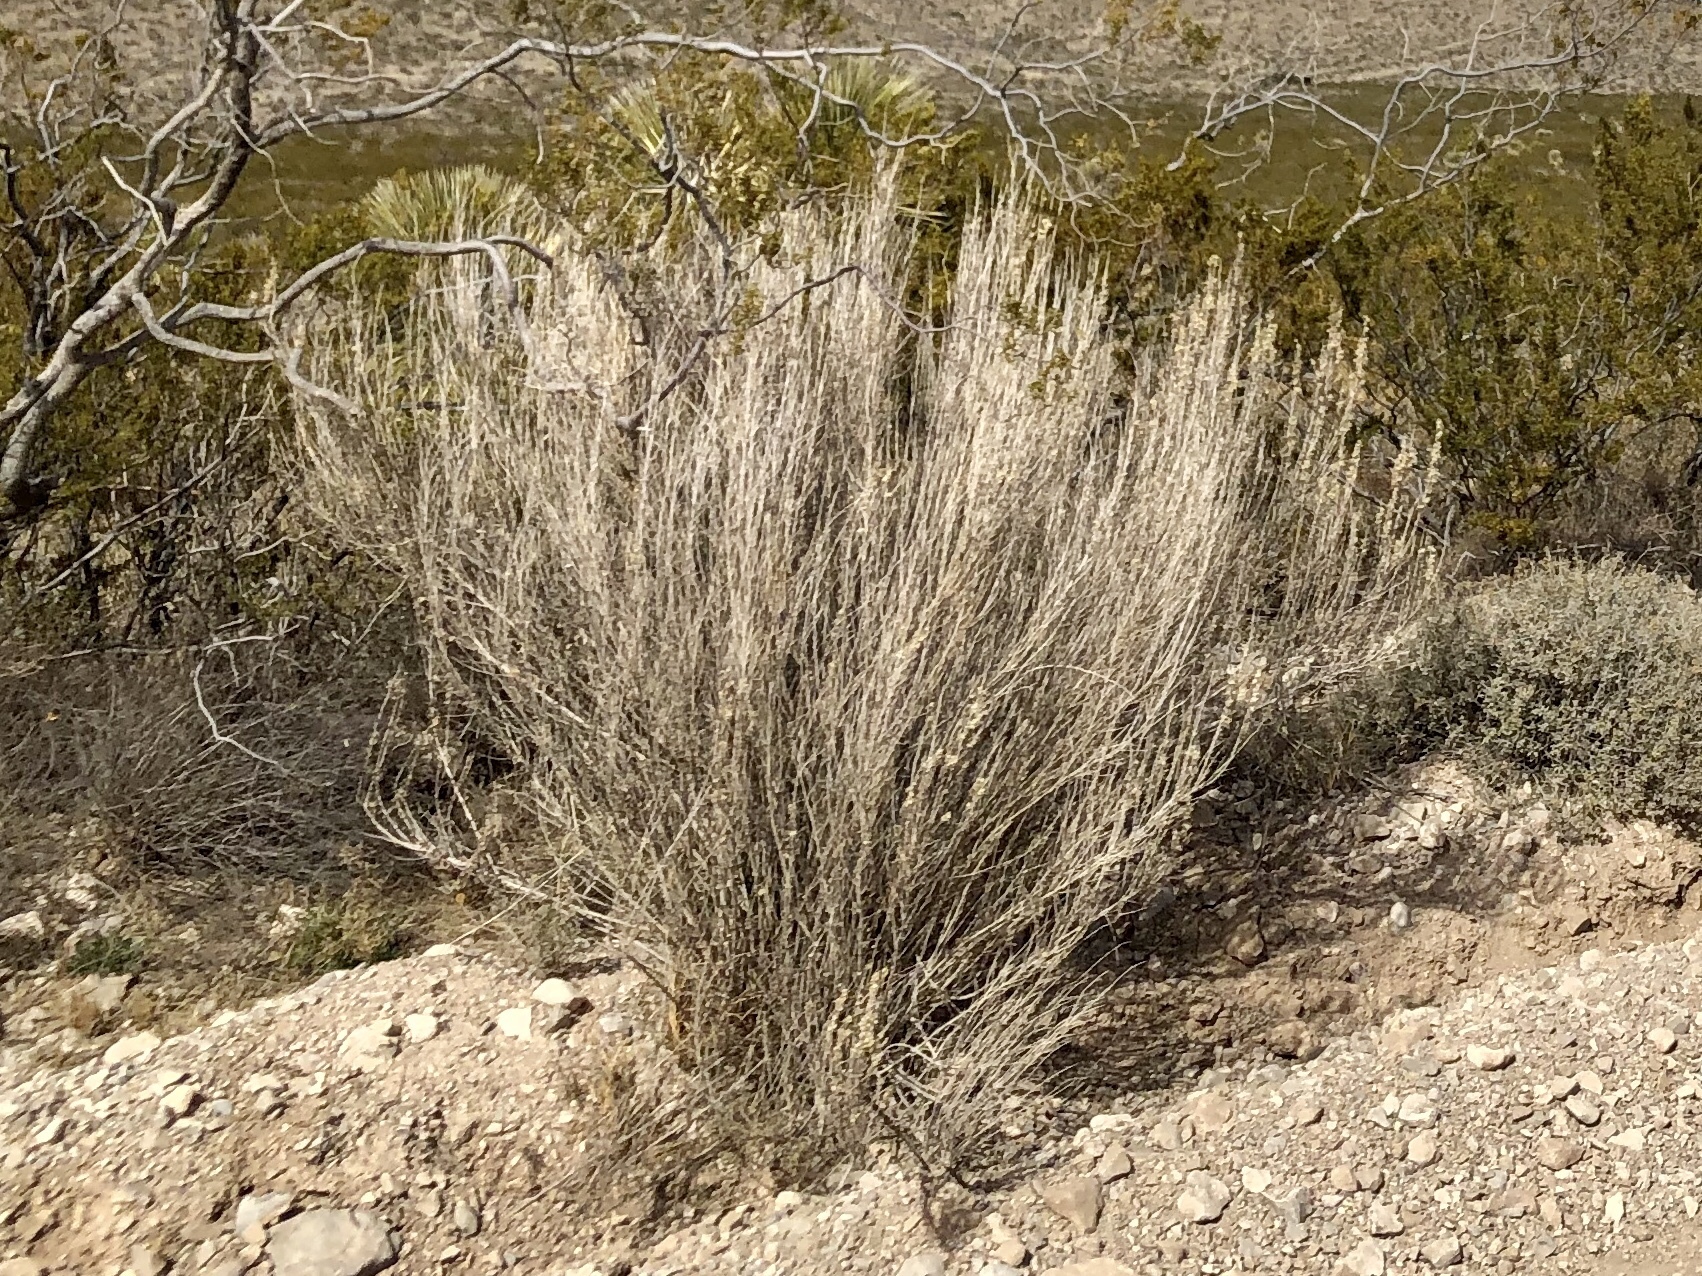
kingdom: Plantae
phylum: Tracheophyta
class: Magnoliopsida
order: Asterales
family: Asteraceae
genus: Brickellia
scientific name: Brickellia laciniata
